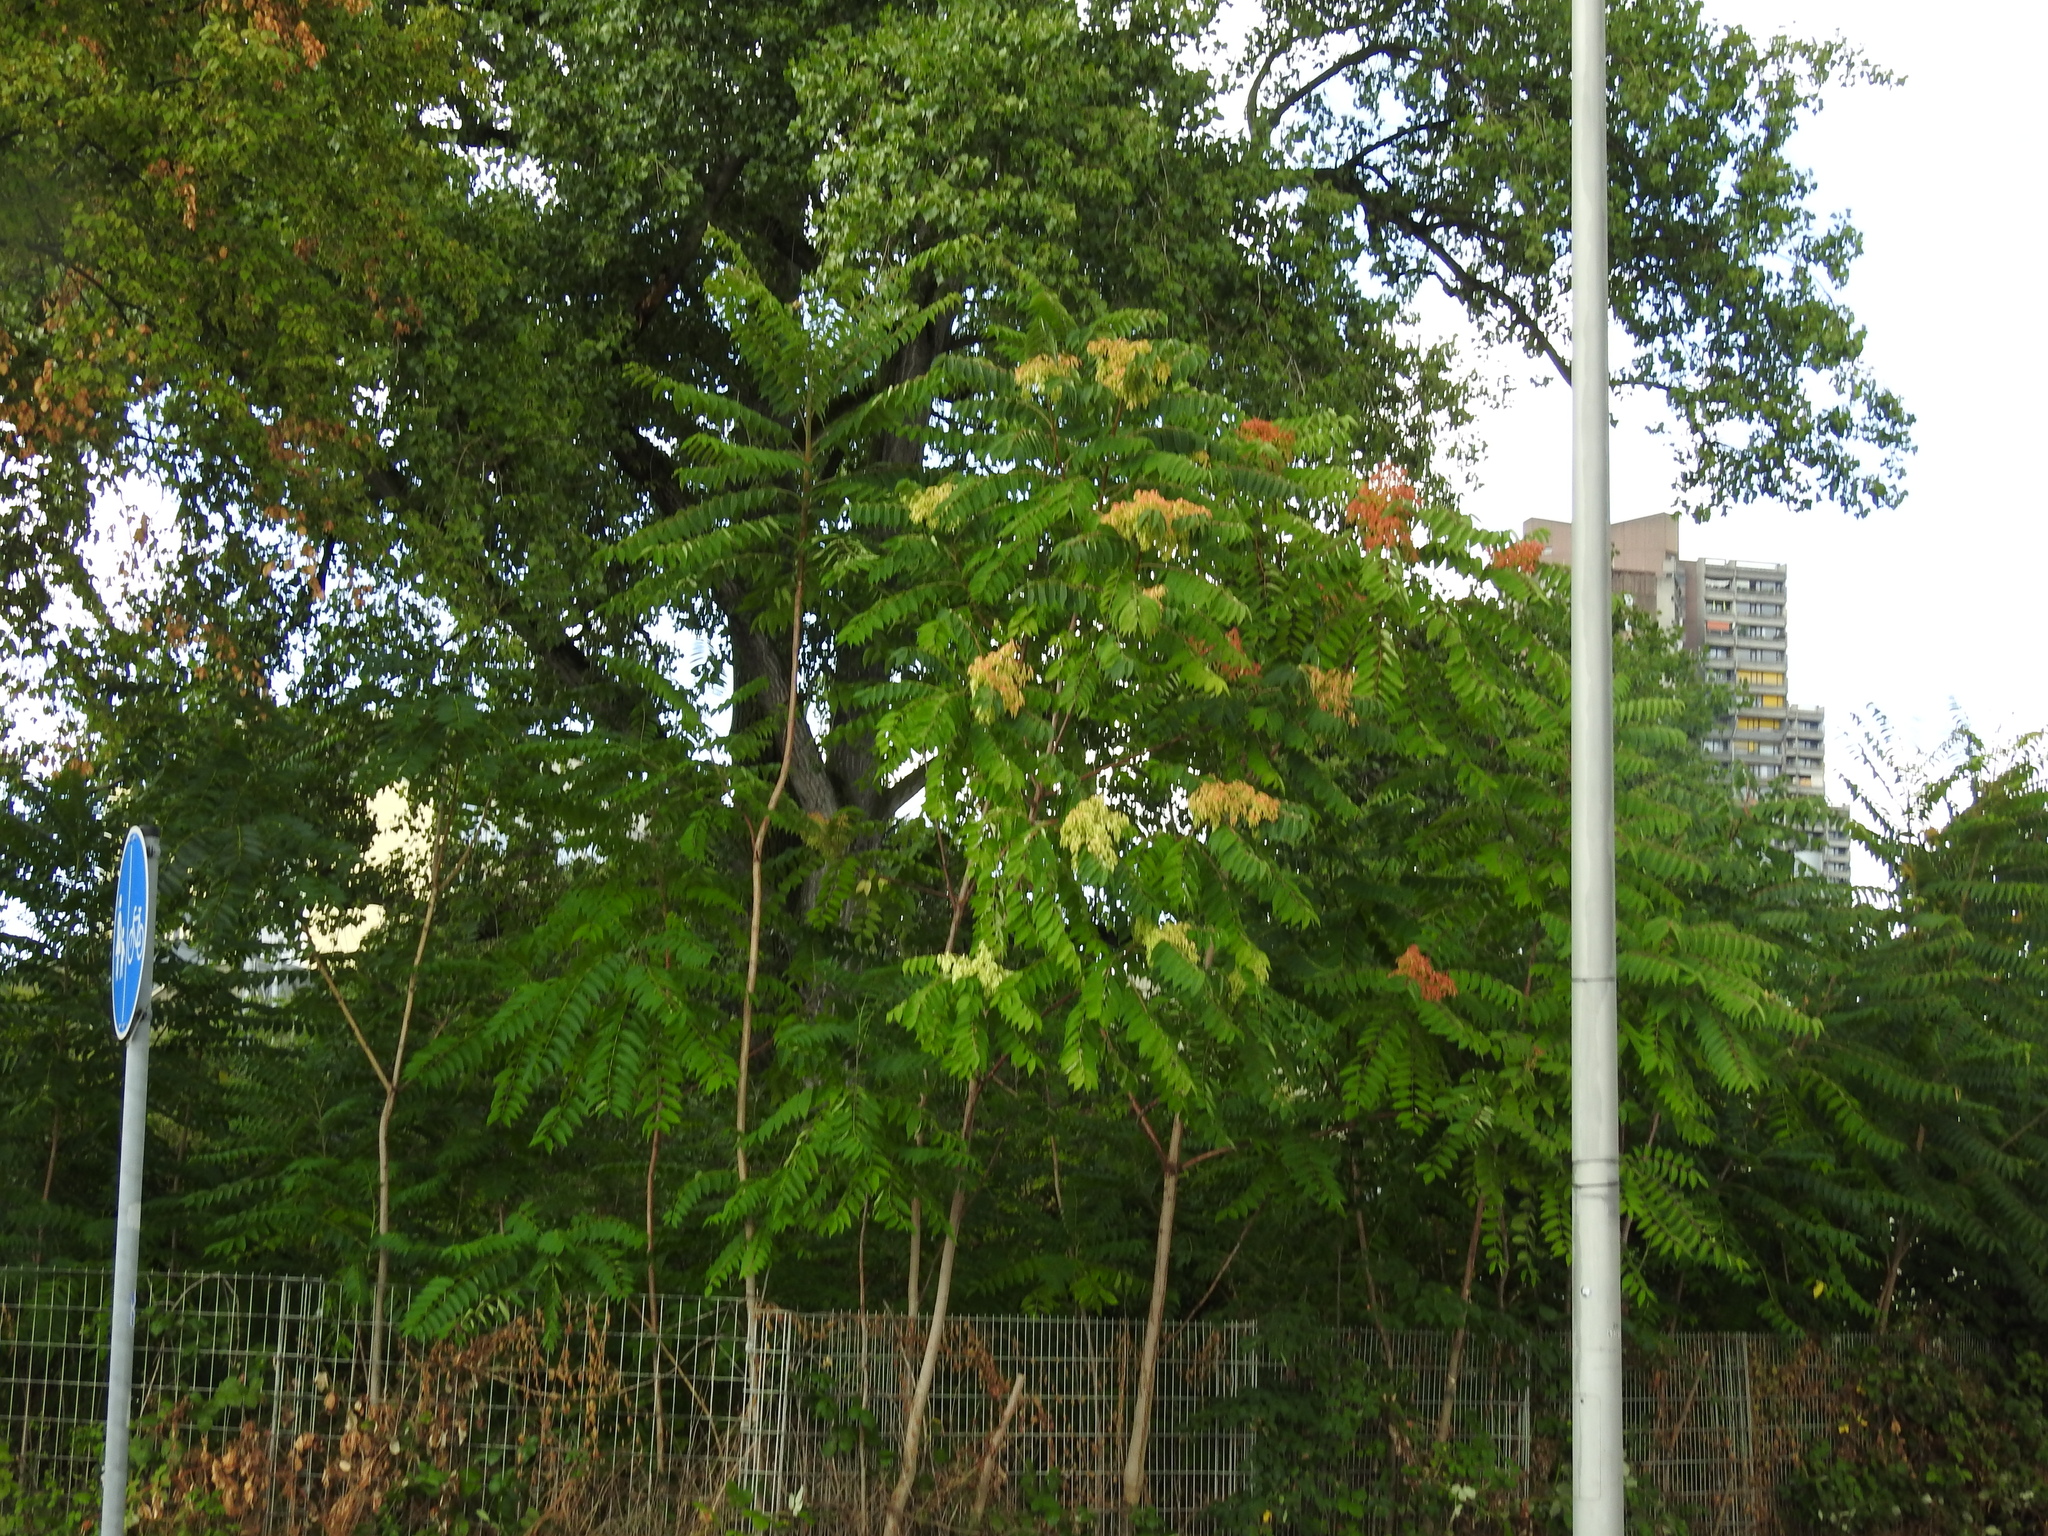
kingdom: Plantae
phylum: Tracheophyta
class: Magnoliopsida
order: Sapindales
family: Simaroubaceae
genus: Ailanthus
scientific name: Ailanthus altissima
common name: Tree-of-heaven
